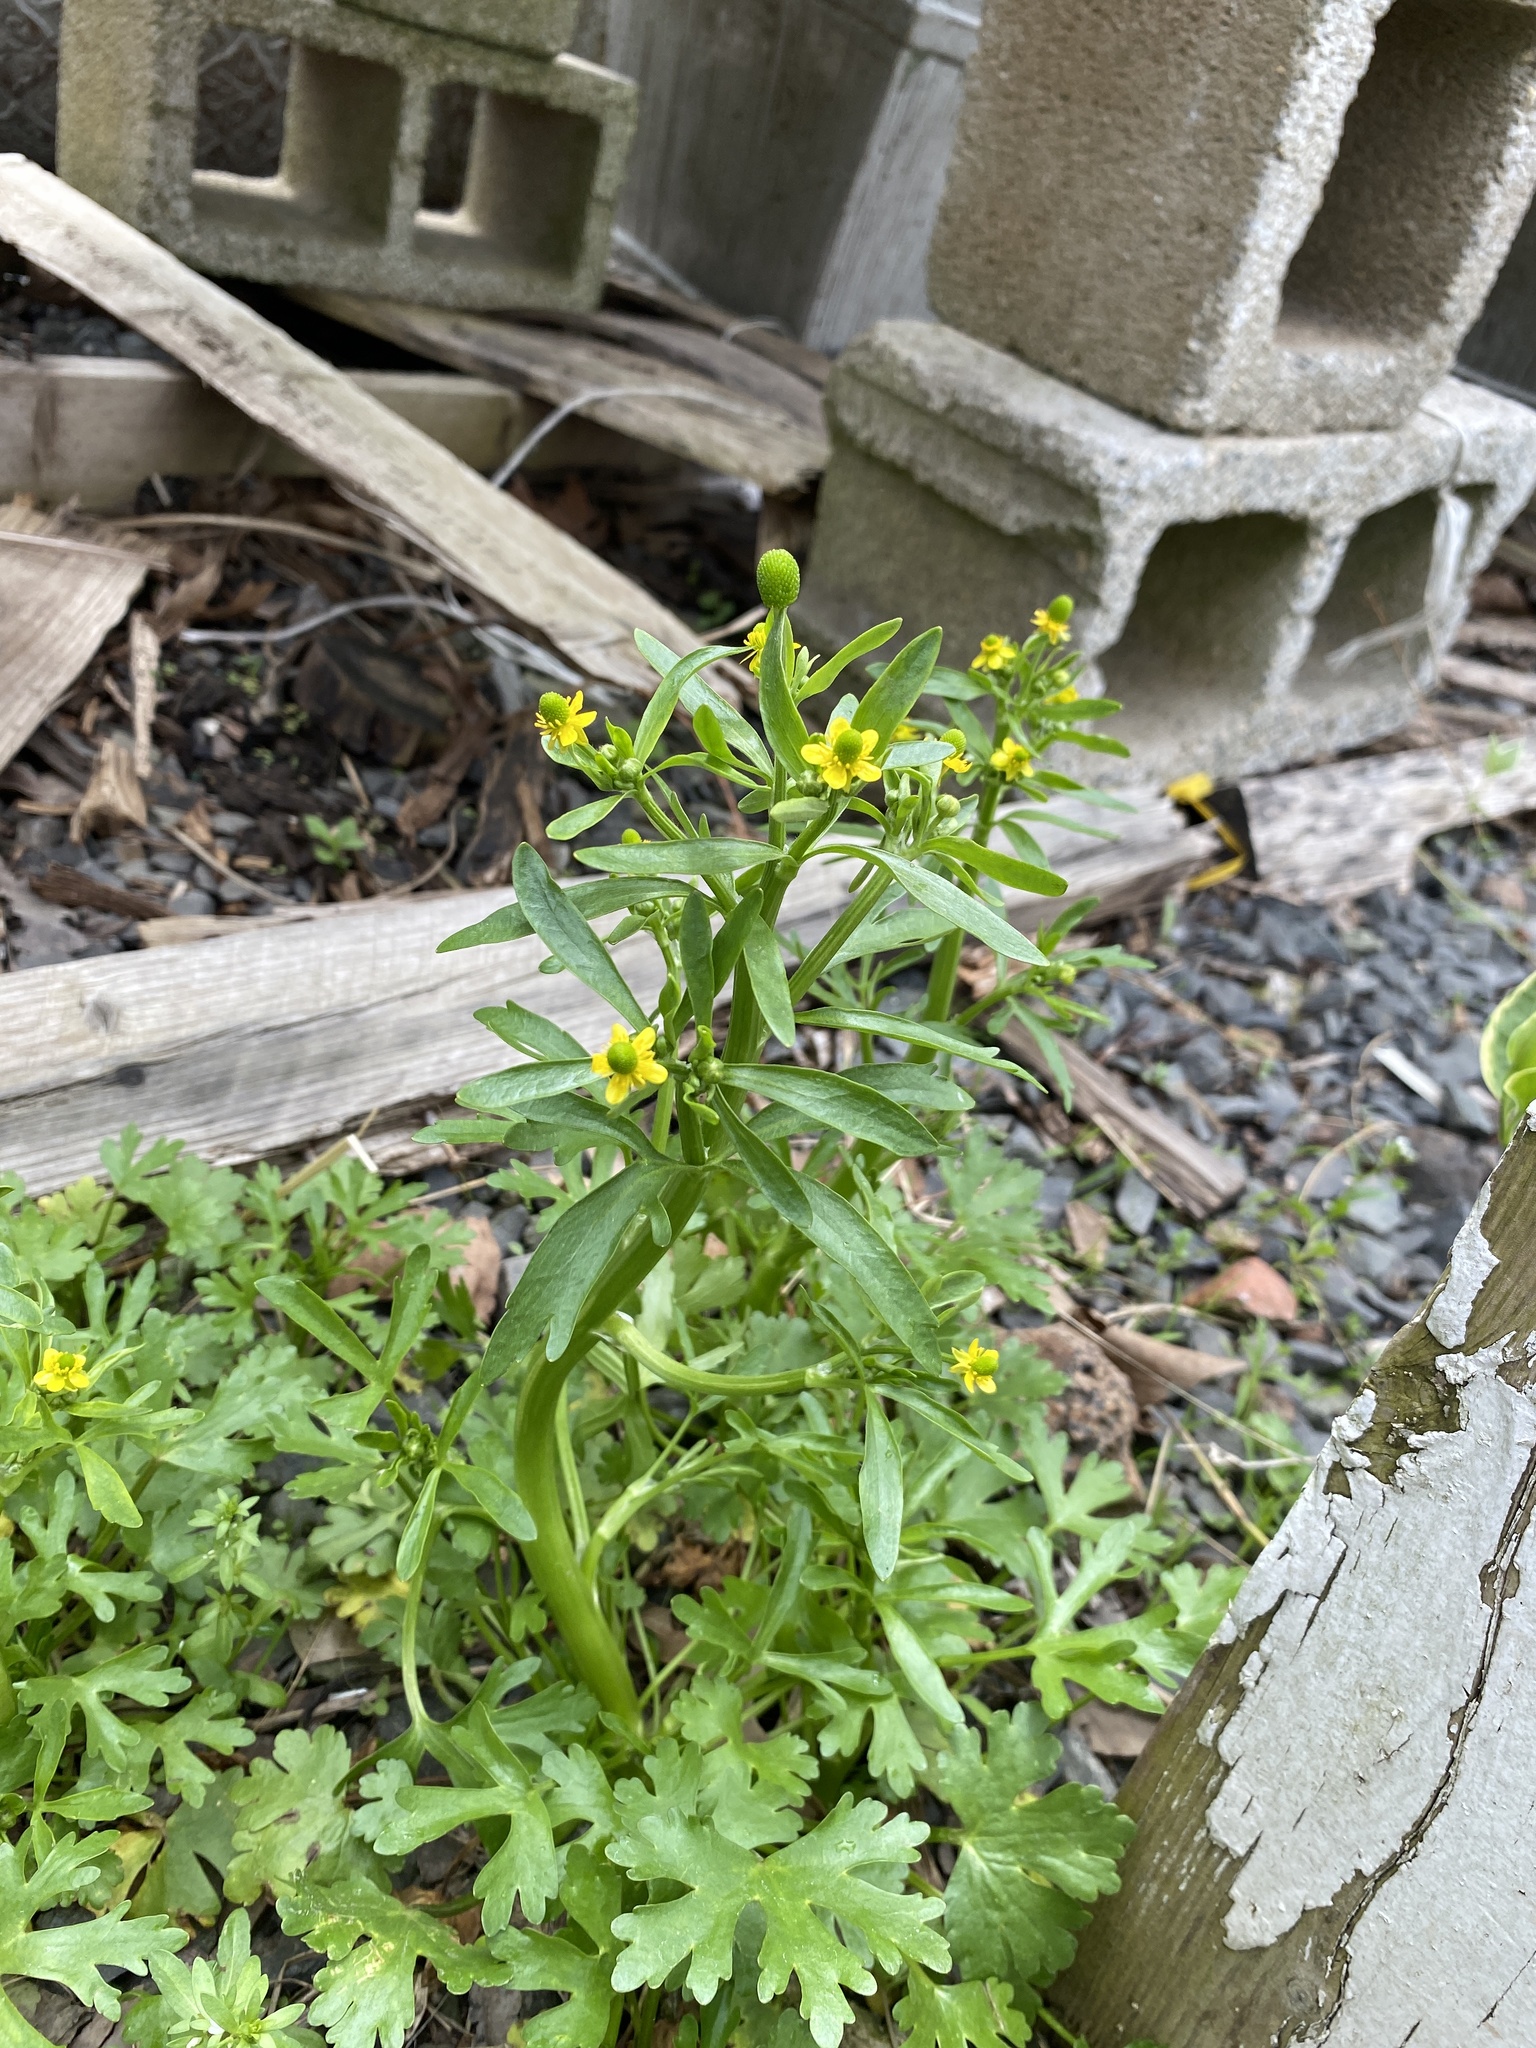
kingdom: Plantae
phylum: Tracheophyta
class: Magnoliopsida
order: Ranunculales
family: Ranunculaceae
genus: Ranunculus
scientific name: Ranunculus sceleratus
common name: Celery-leaved buttercup
